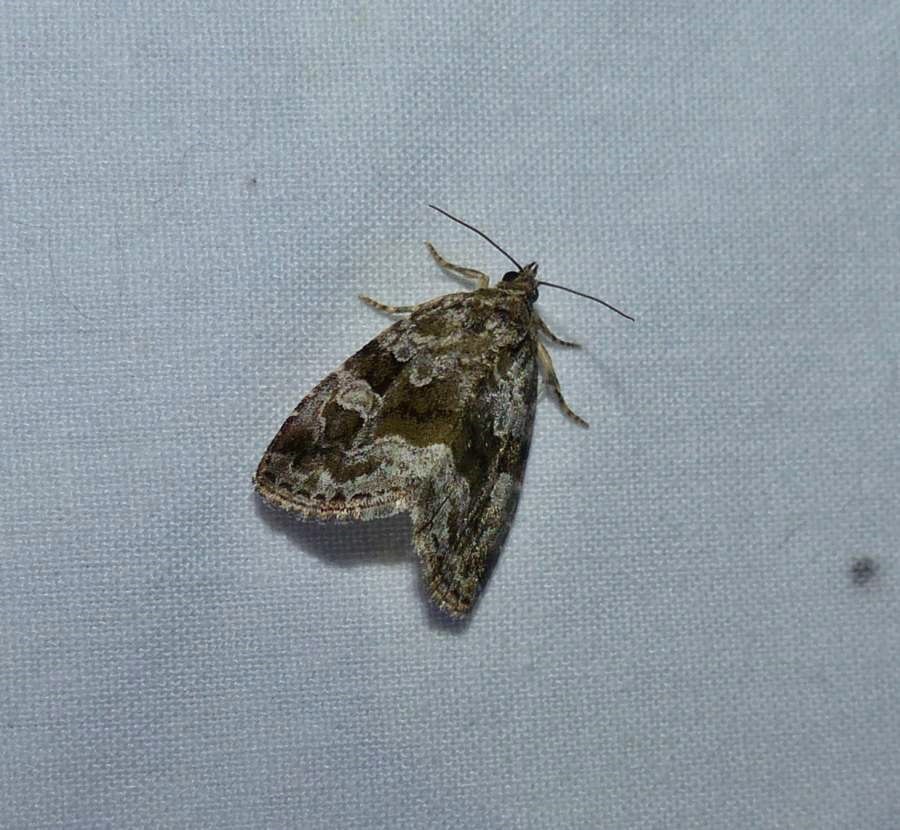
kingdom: Animalia
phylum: Arthropoda
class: Insecta
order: Lepidoptera
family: Noctuidae
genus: Protodeltote
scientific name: Protodeltote muscosula
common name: Large mossy glyph
